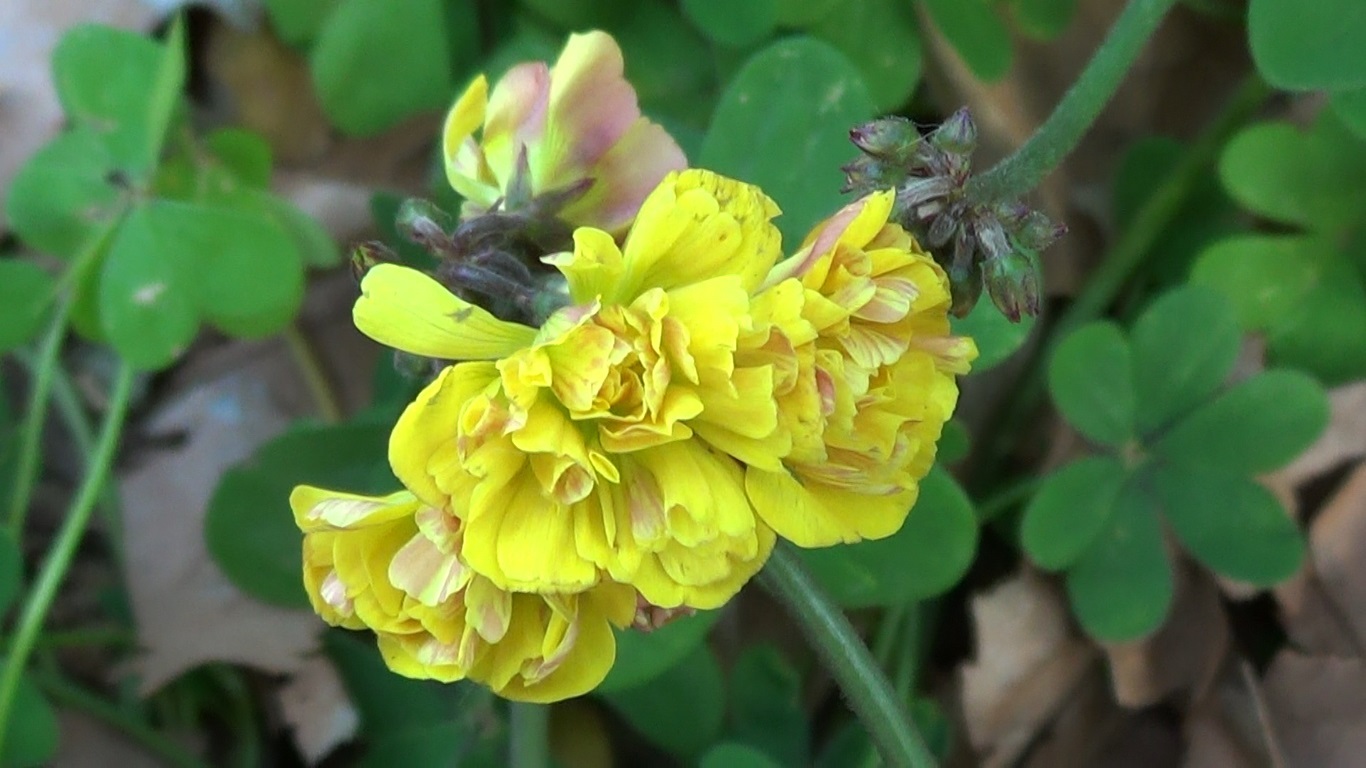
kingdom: Plantae
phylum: Tracheophyta
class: Magnoliopsida
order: Oxalidales
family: Oxalidaceae
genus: Oxalis
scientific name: Oxalis pes-caprae
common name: Bermuda-buttercup
